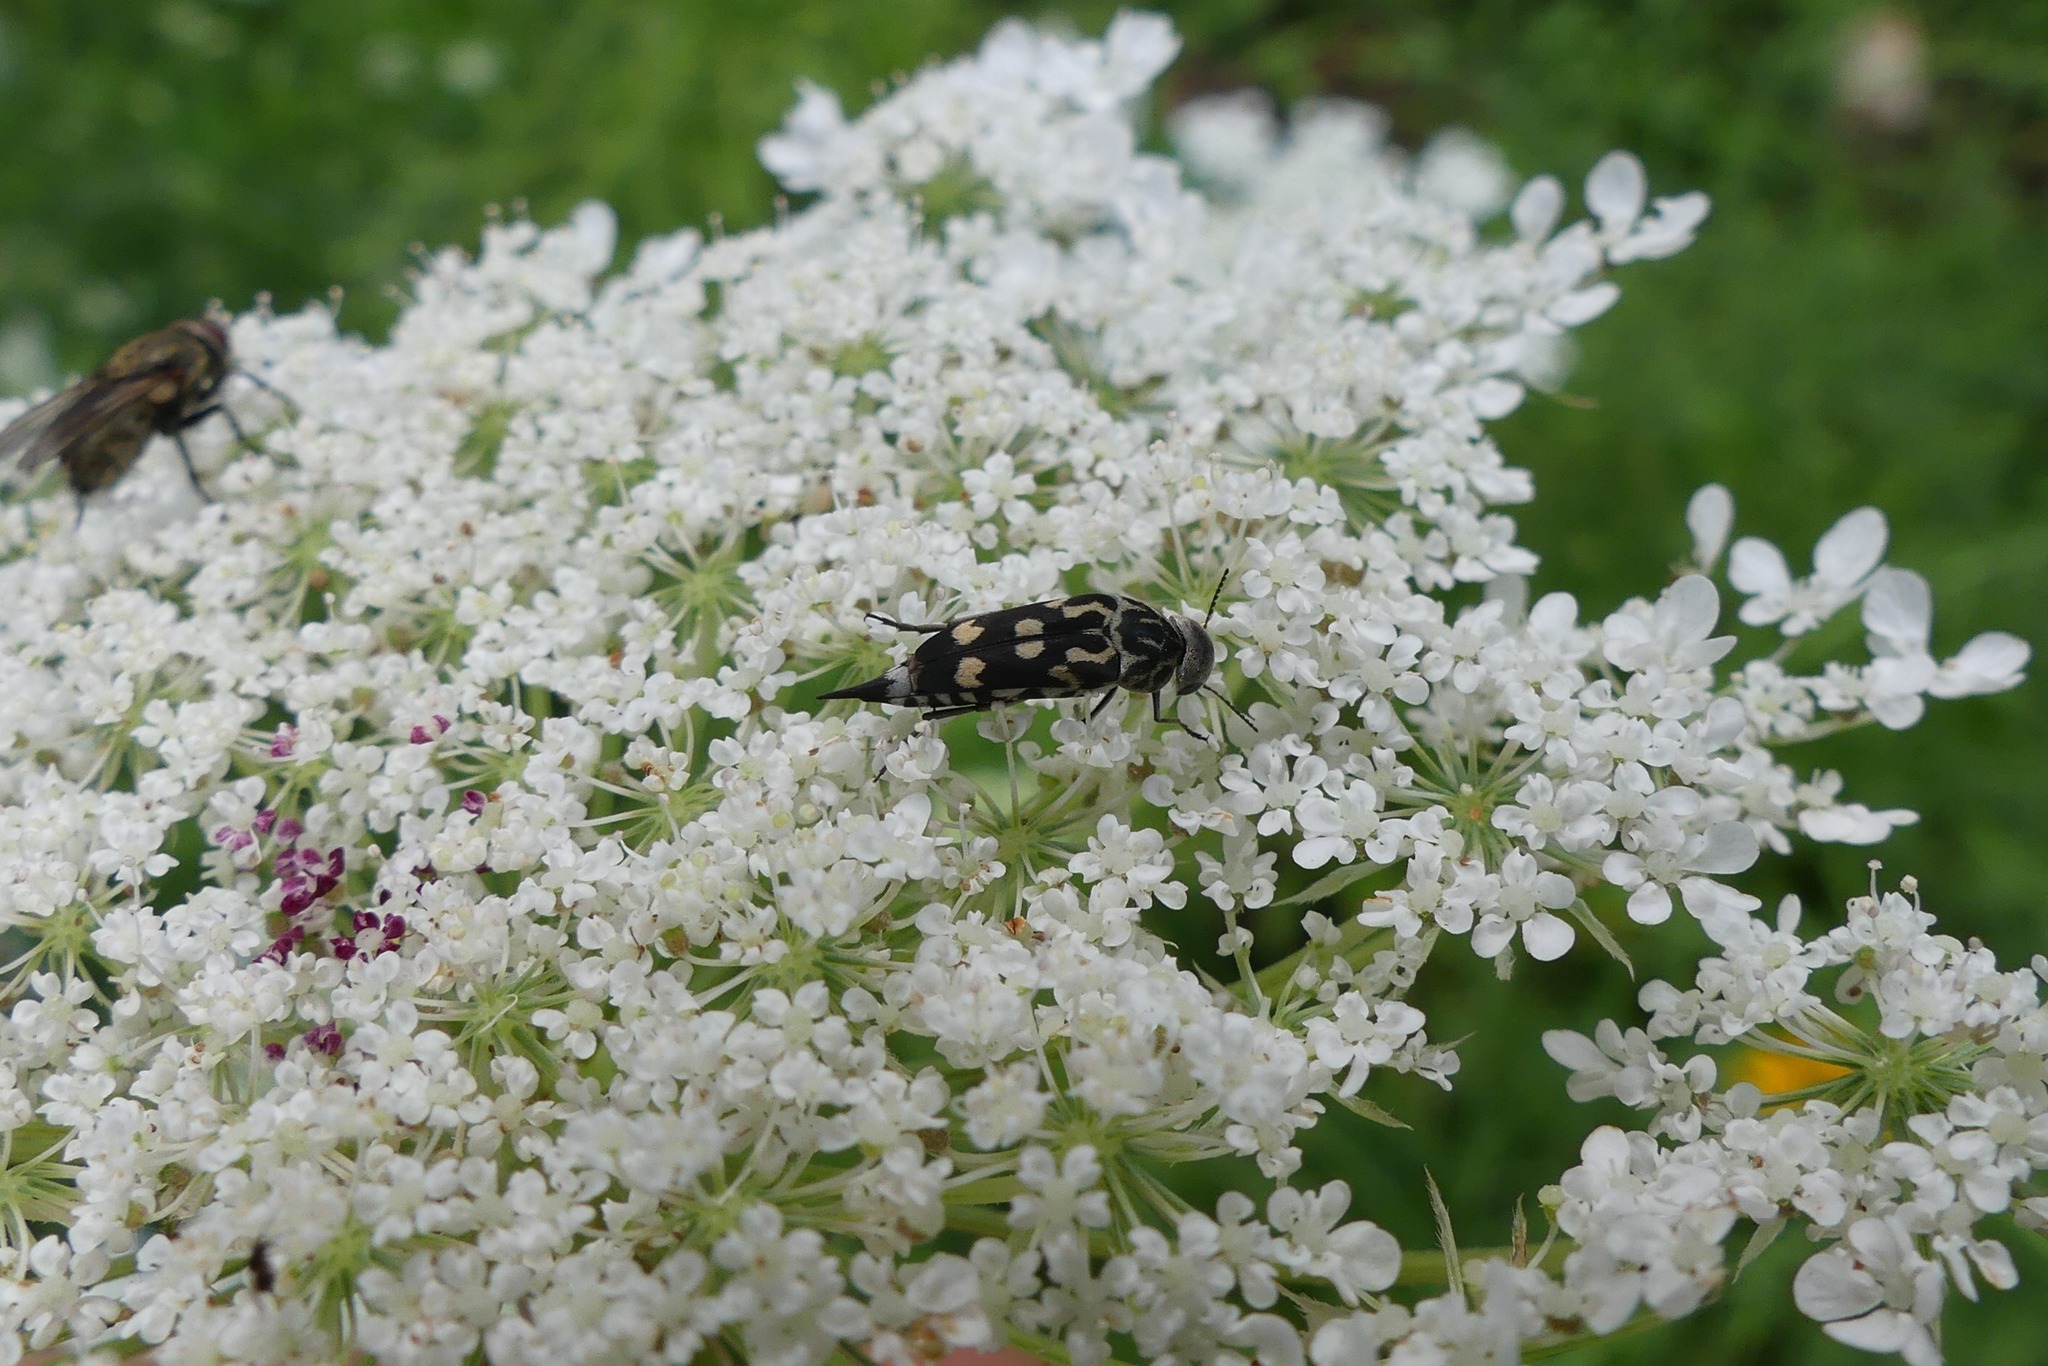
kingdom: Animalia
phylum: Arthropoda
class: Insecta
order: Coleoptera
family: Mordellidae
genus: Hoshihananomia
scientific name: Hoshihananomia octopunctata
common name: Eight-spotted tumbling flower beetle
